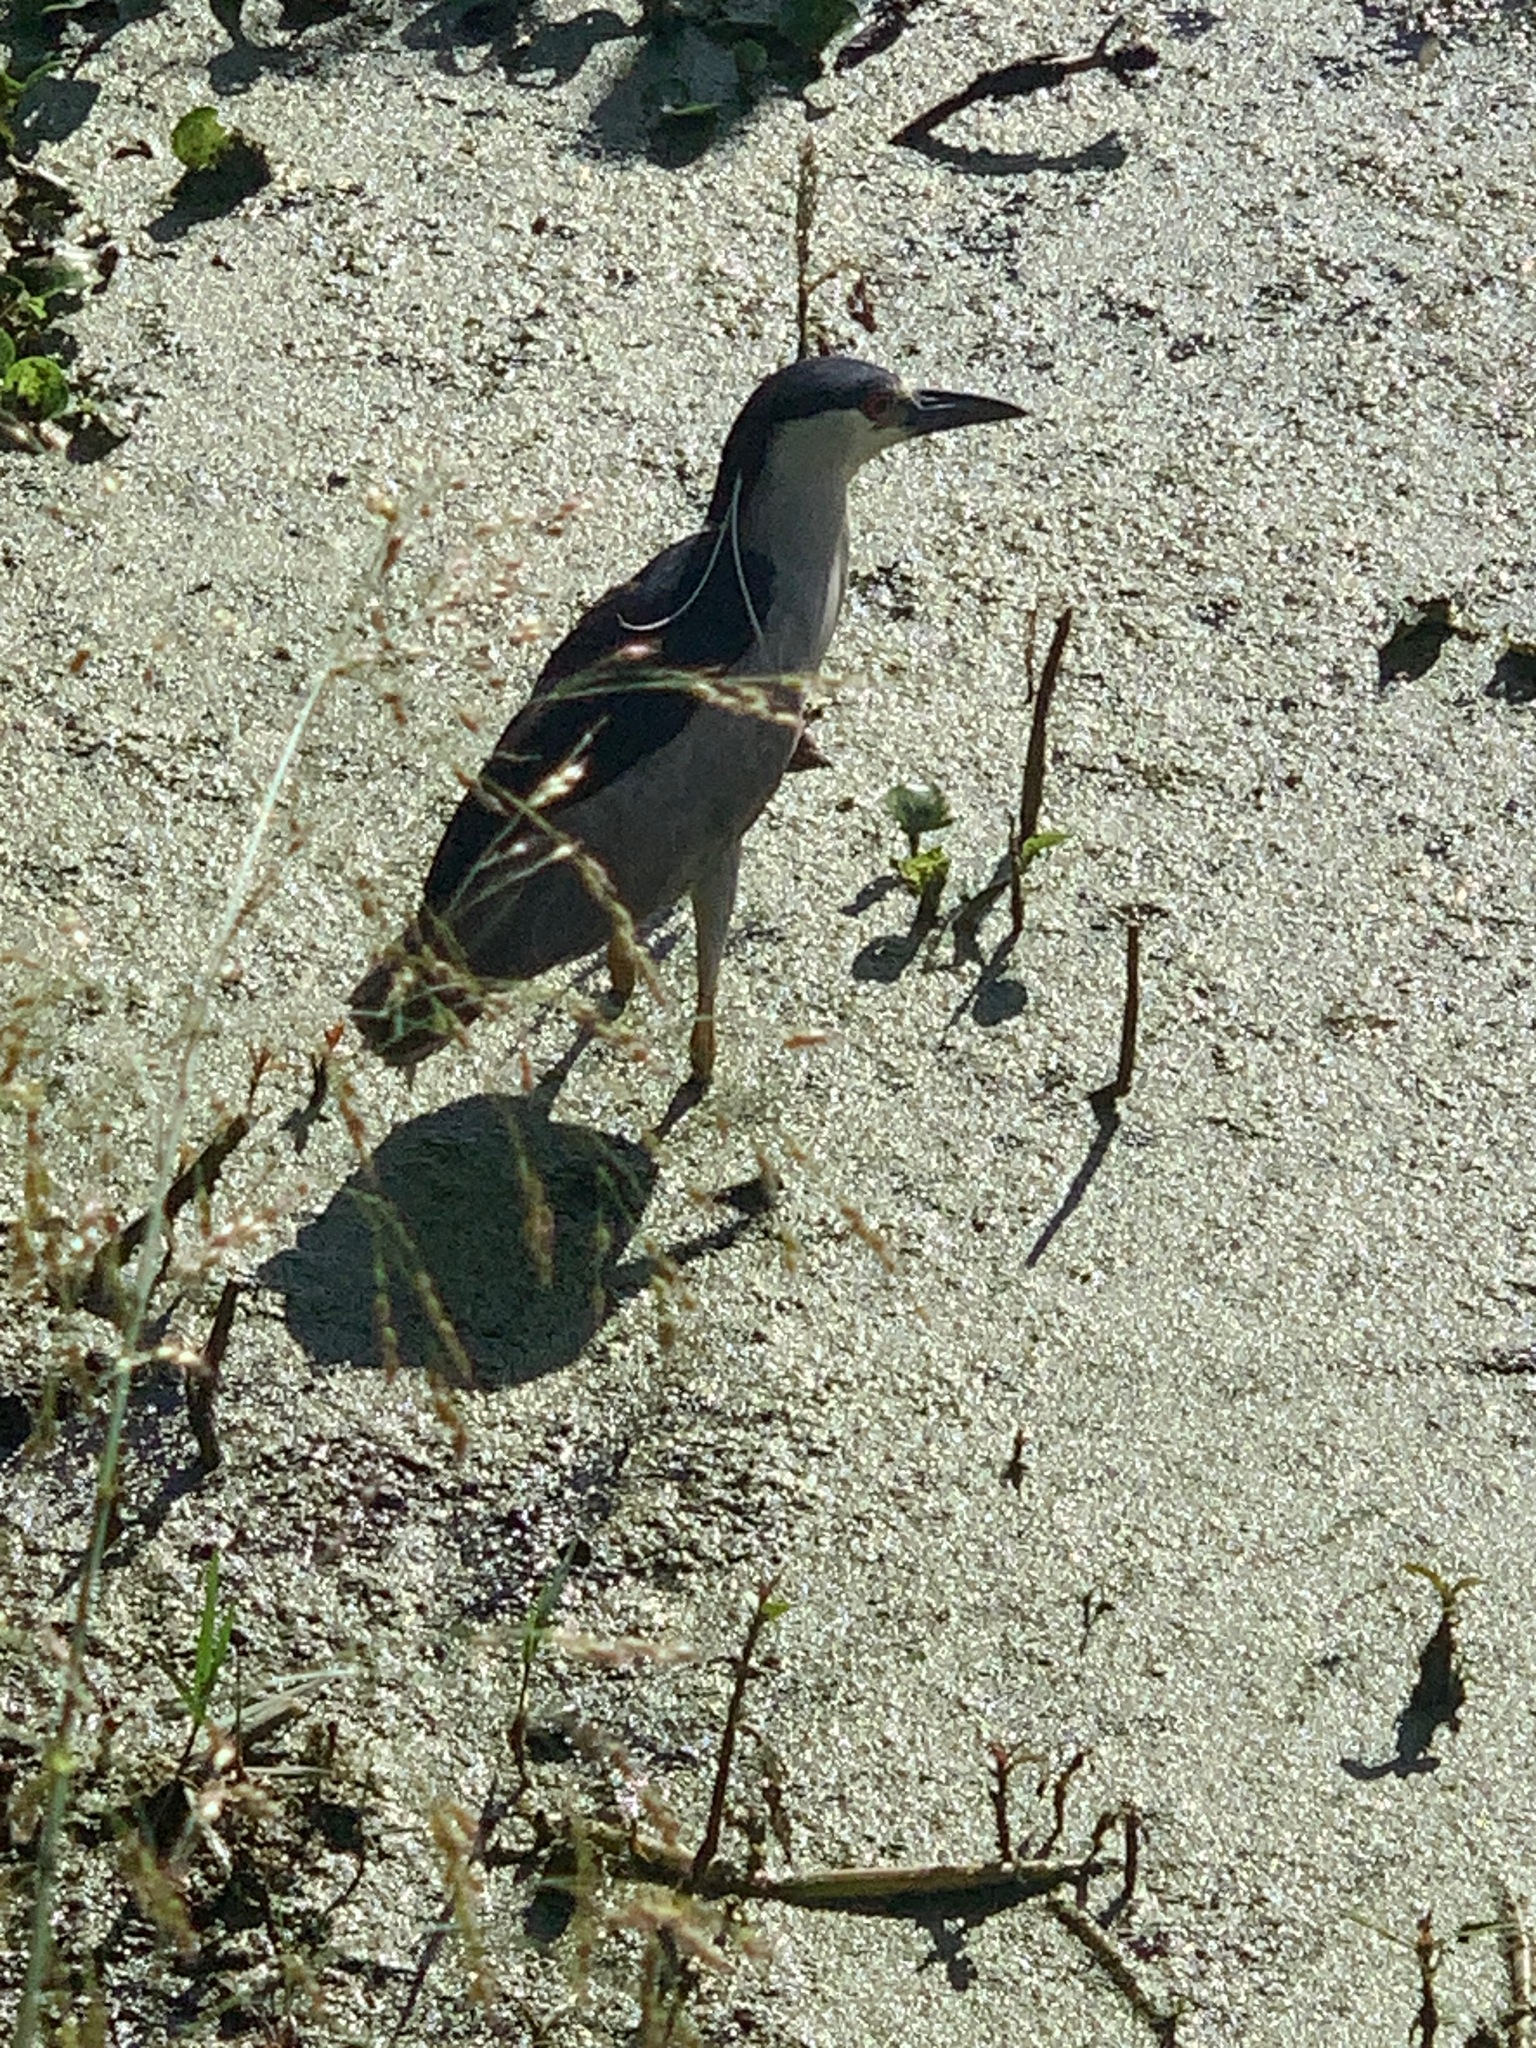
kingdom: Animalia
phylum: Chordata
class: Aves
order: Pelecaniformes
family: Ardeidae
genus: Nycticorax
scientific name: Nycticorax nycticorax
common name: Black-crowned night heron
